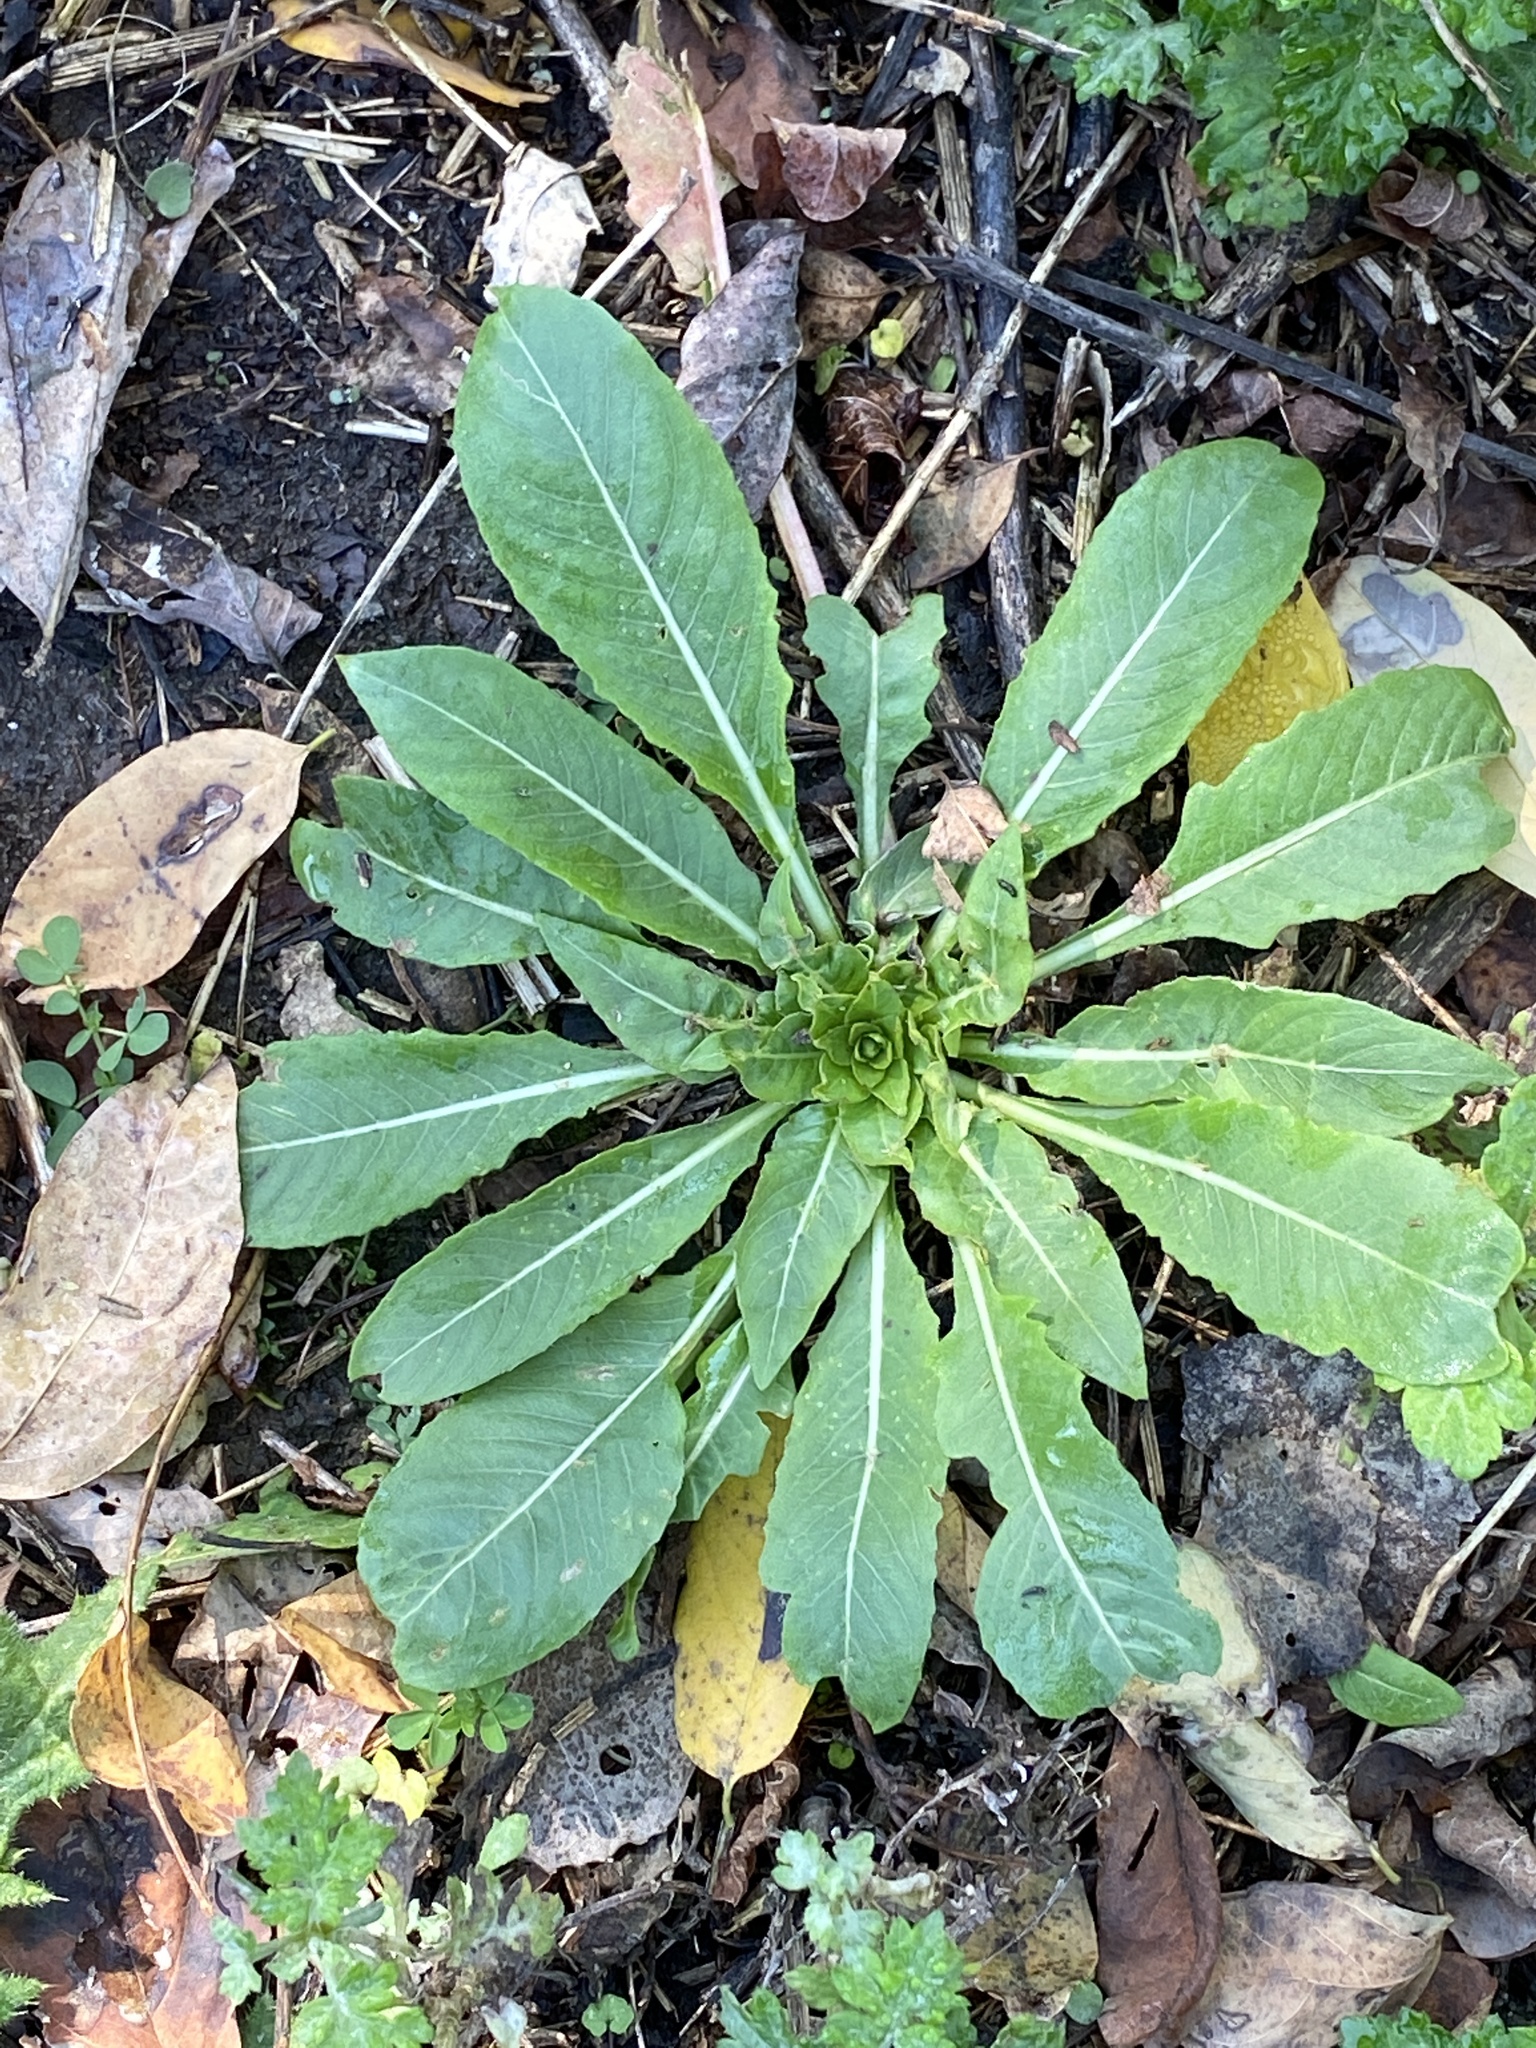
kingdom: Plantae
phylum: Tracheophyta
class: Magnoliopsida
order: Myrtales
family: Onagraceae
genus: Oenothera
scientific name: Oenothera biennis
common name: Common evening-primrose
